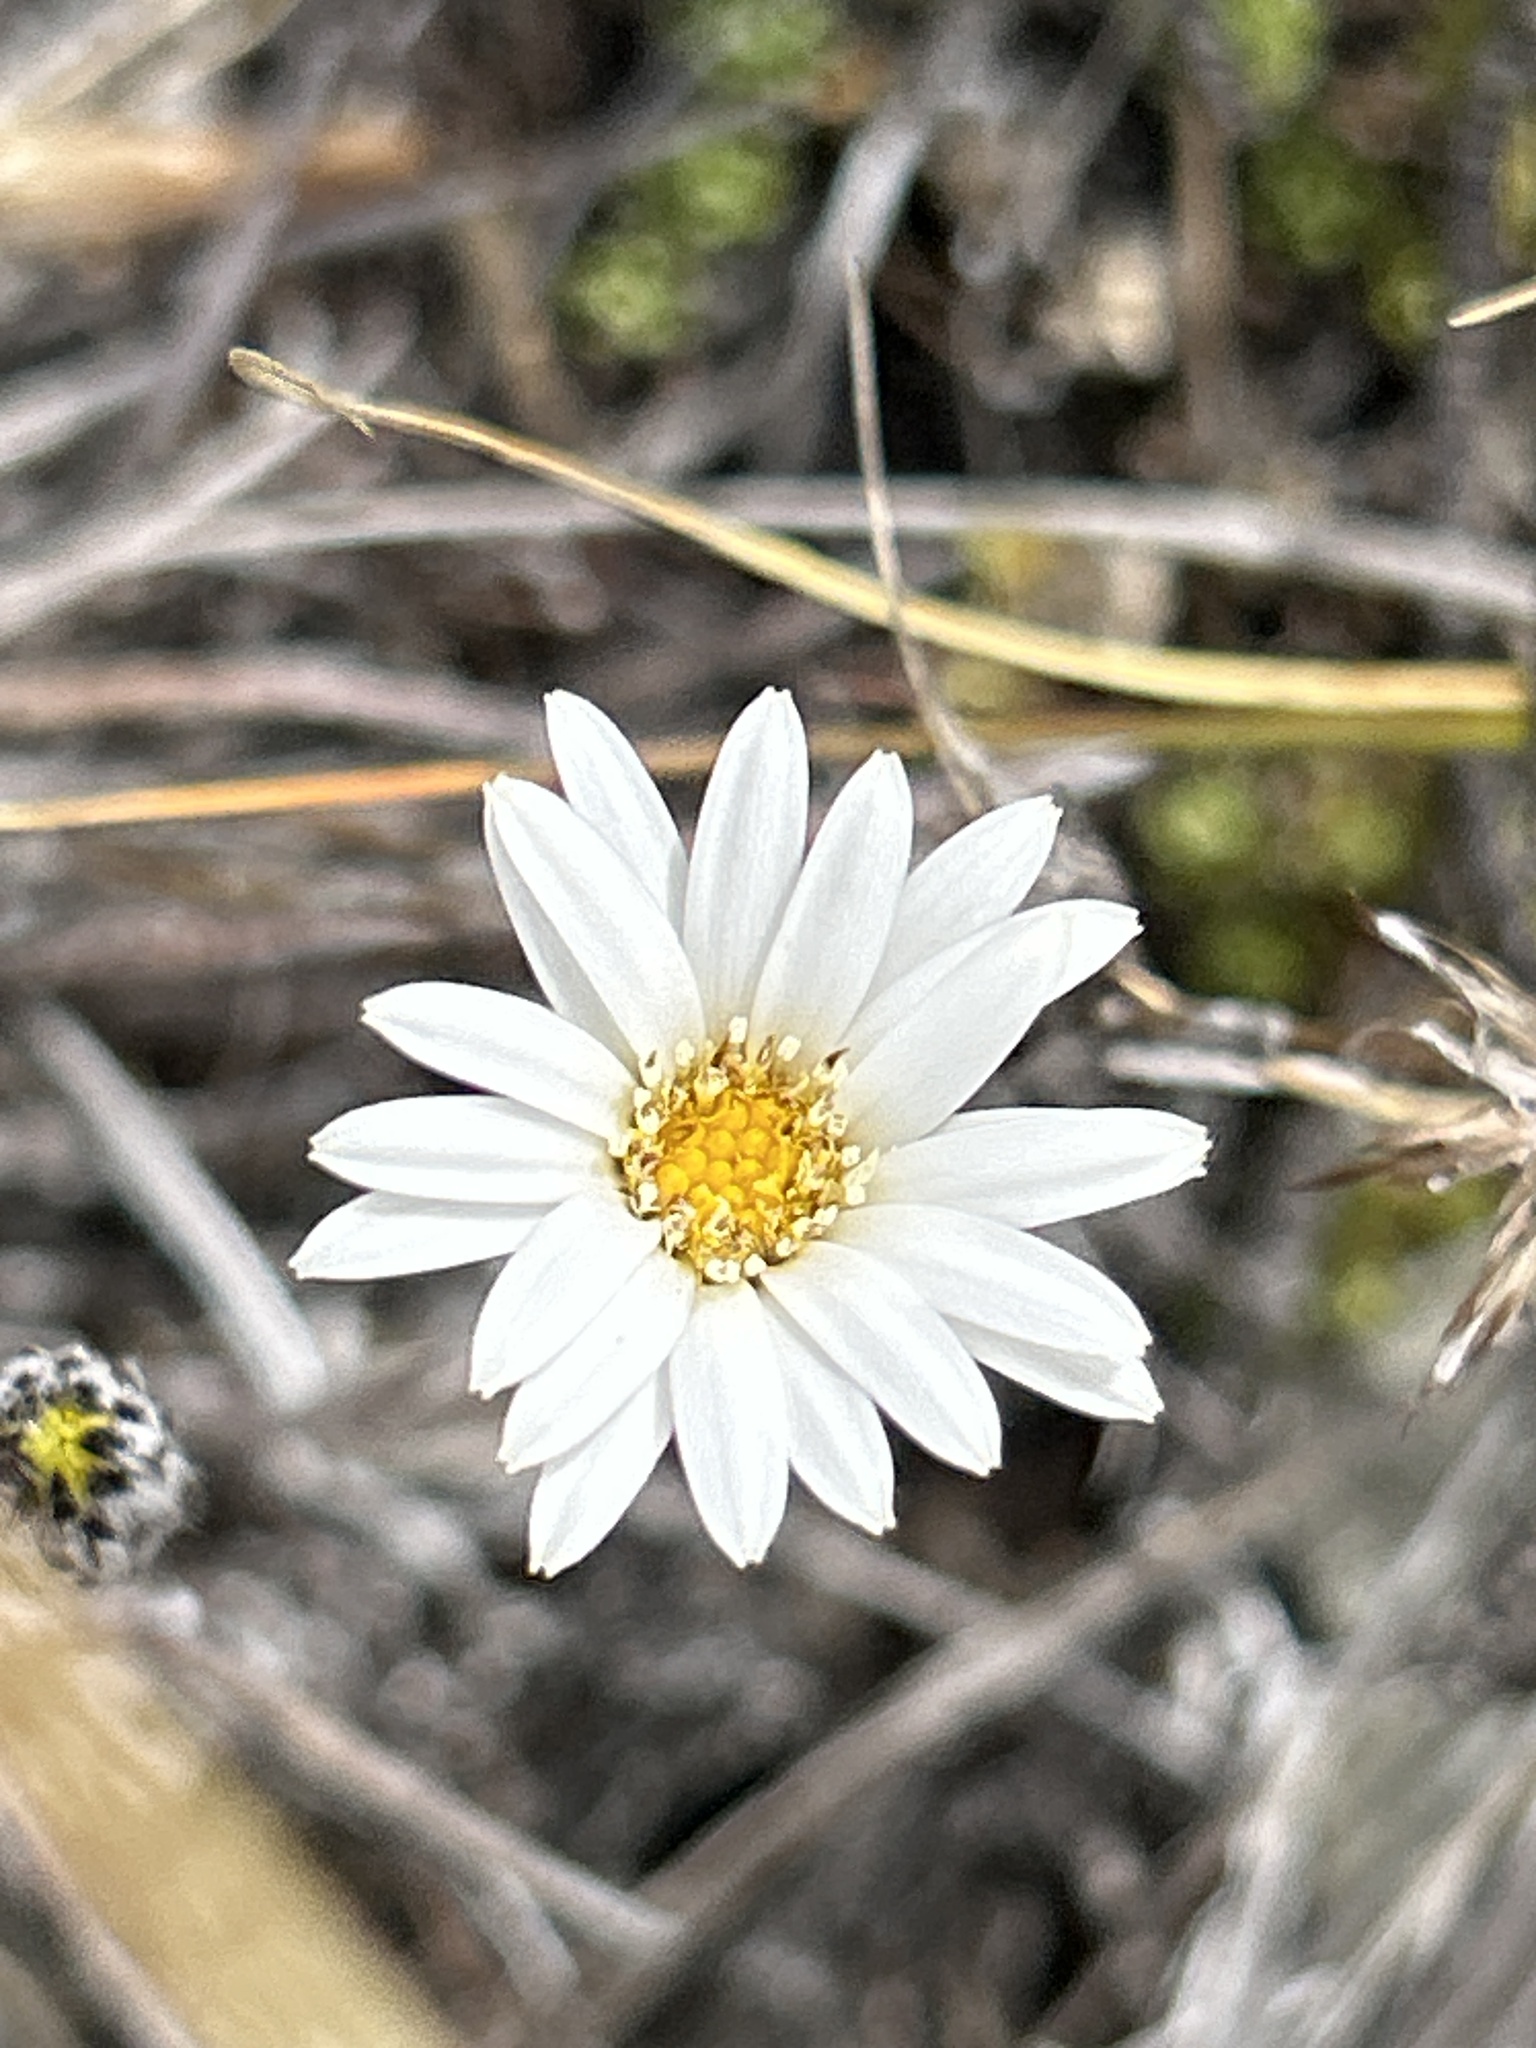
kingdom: Plantae
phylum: Tracheophyta
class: Magnoliopsida
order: Asterales
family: Asteraceae
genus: Celmisia
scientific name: Celmisia gracilenta
